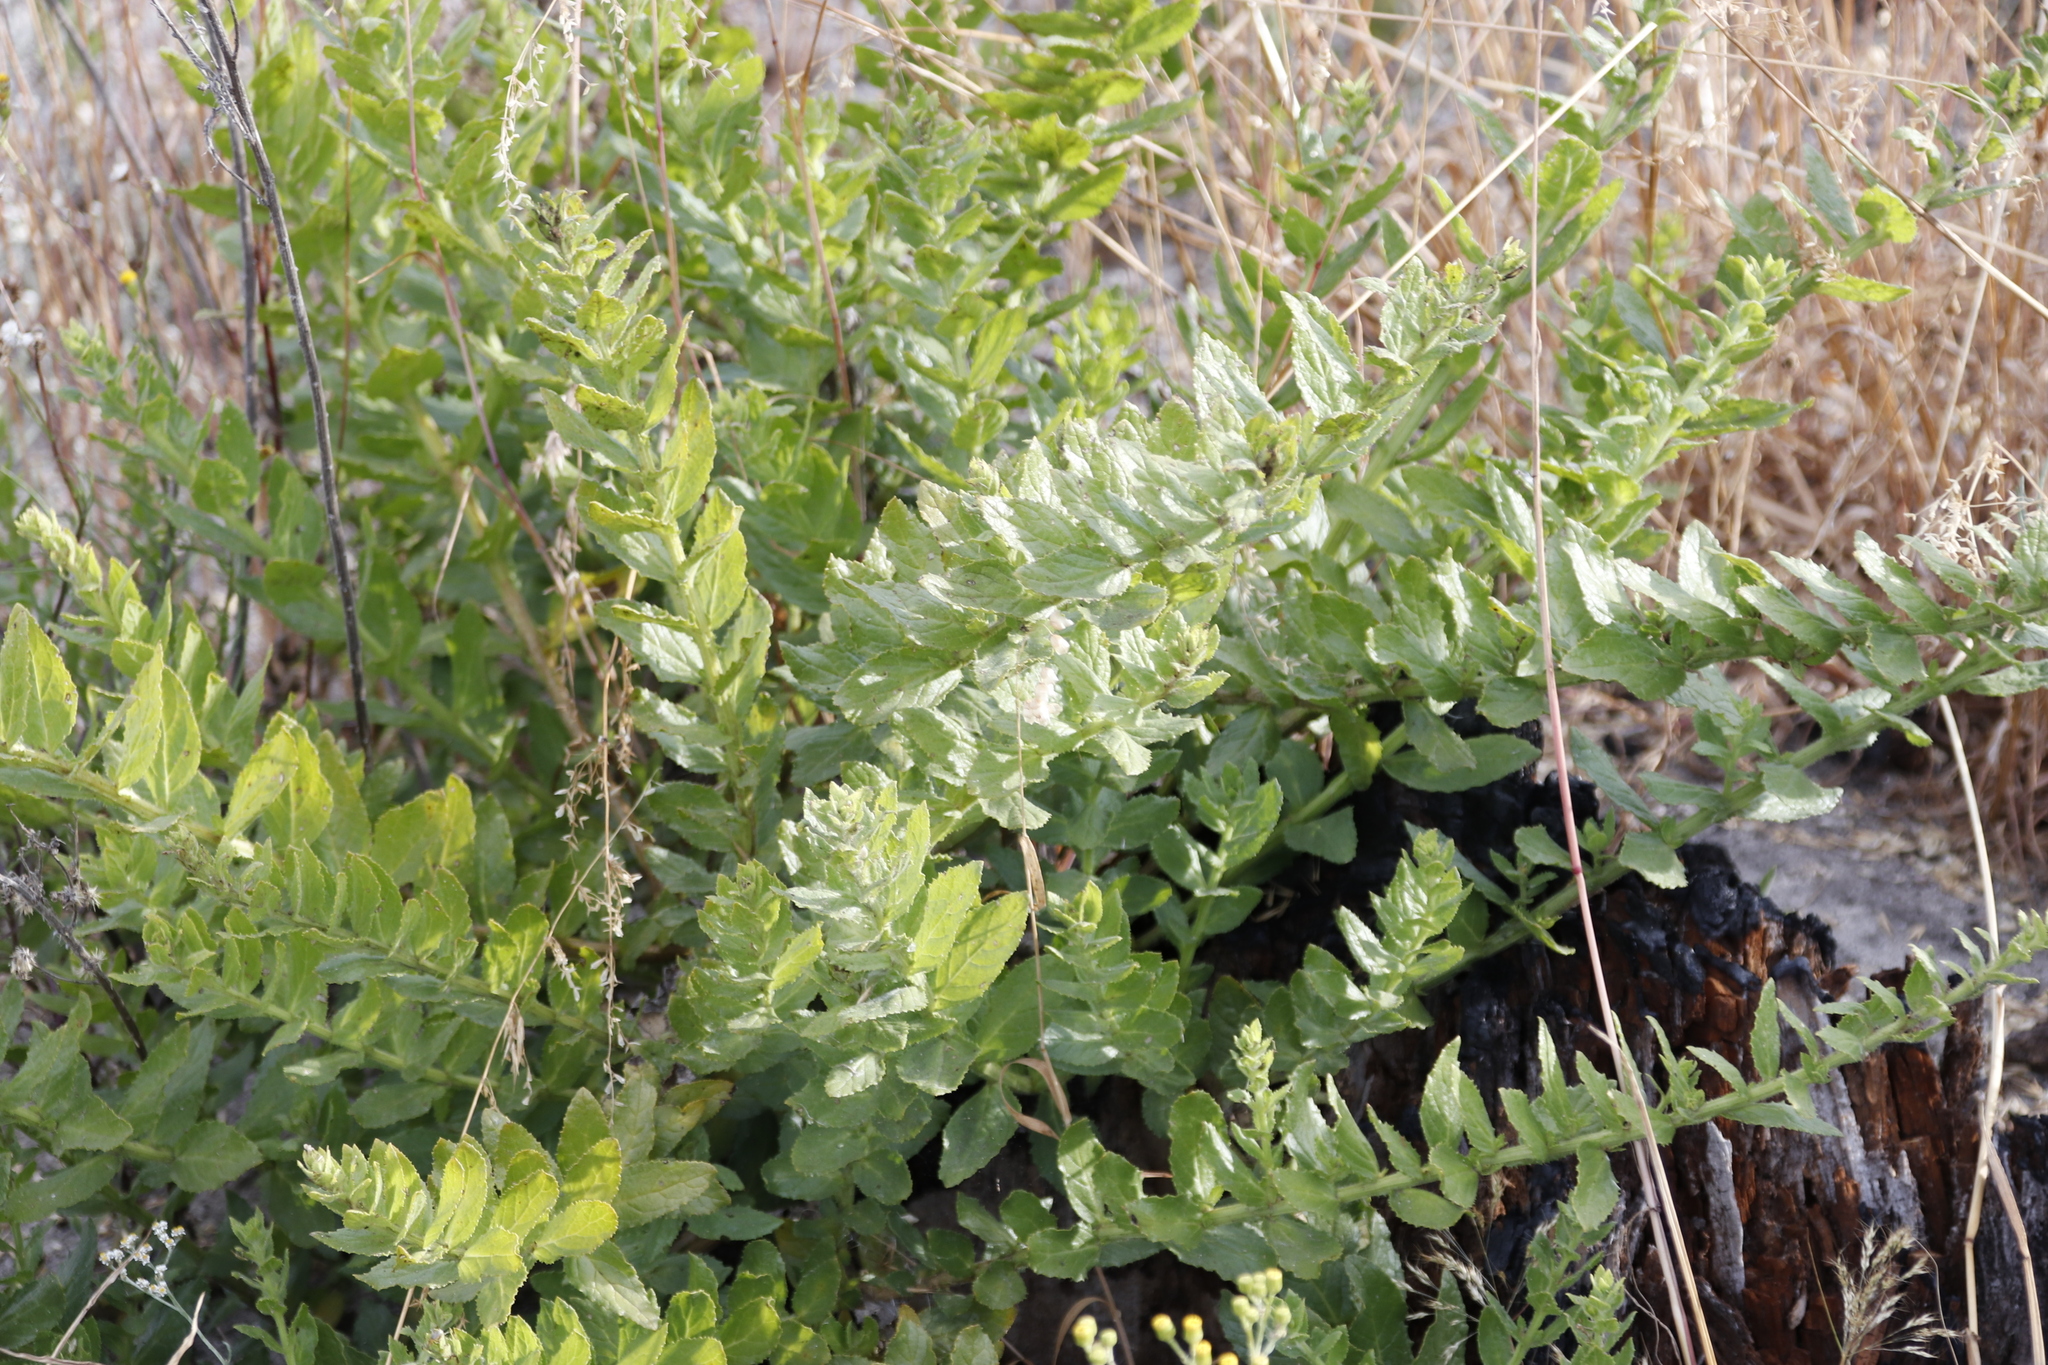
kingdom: Plantae
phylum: Tracheophyta
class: Magnoliopsida
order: Lamiales
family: Scrophulariaceae
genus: Oftia
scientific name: Oftia africana
